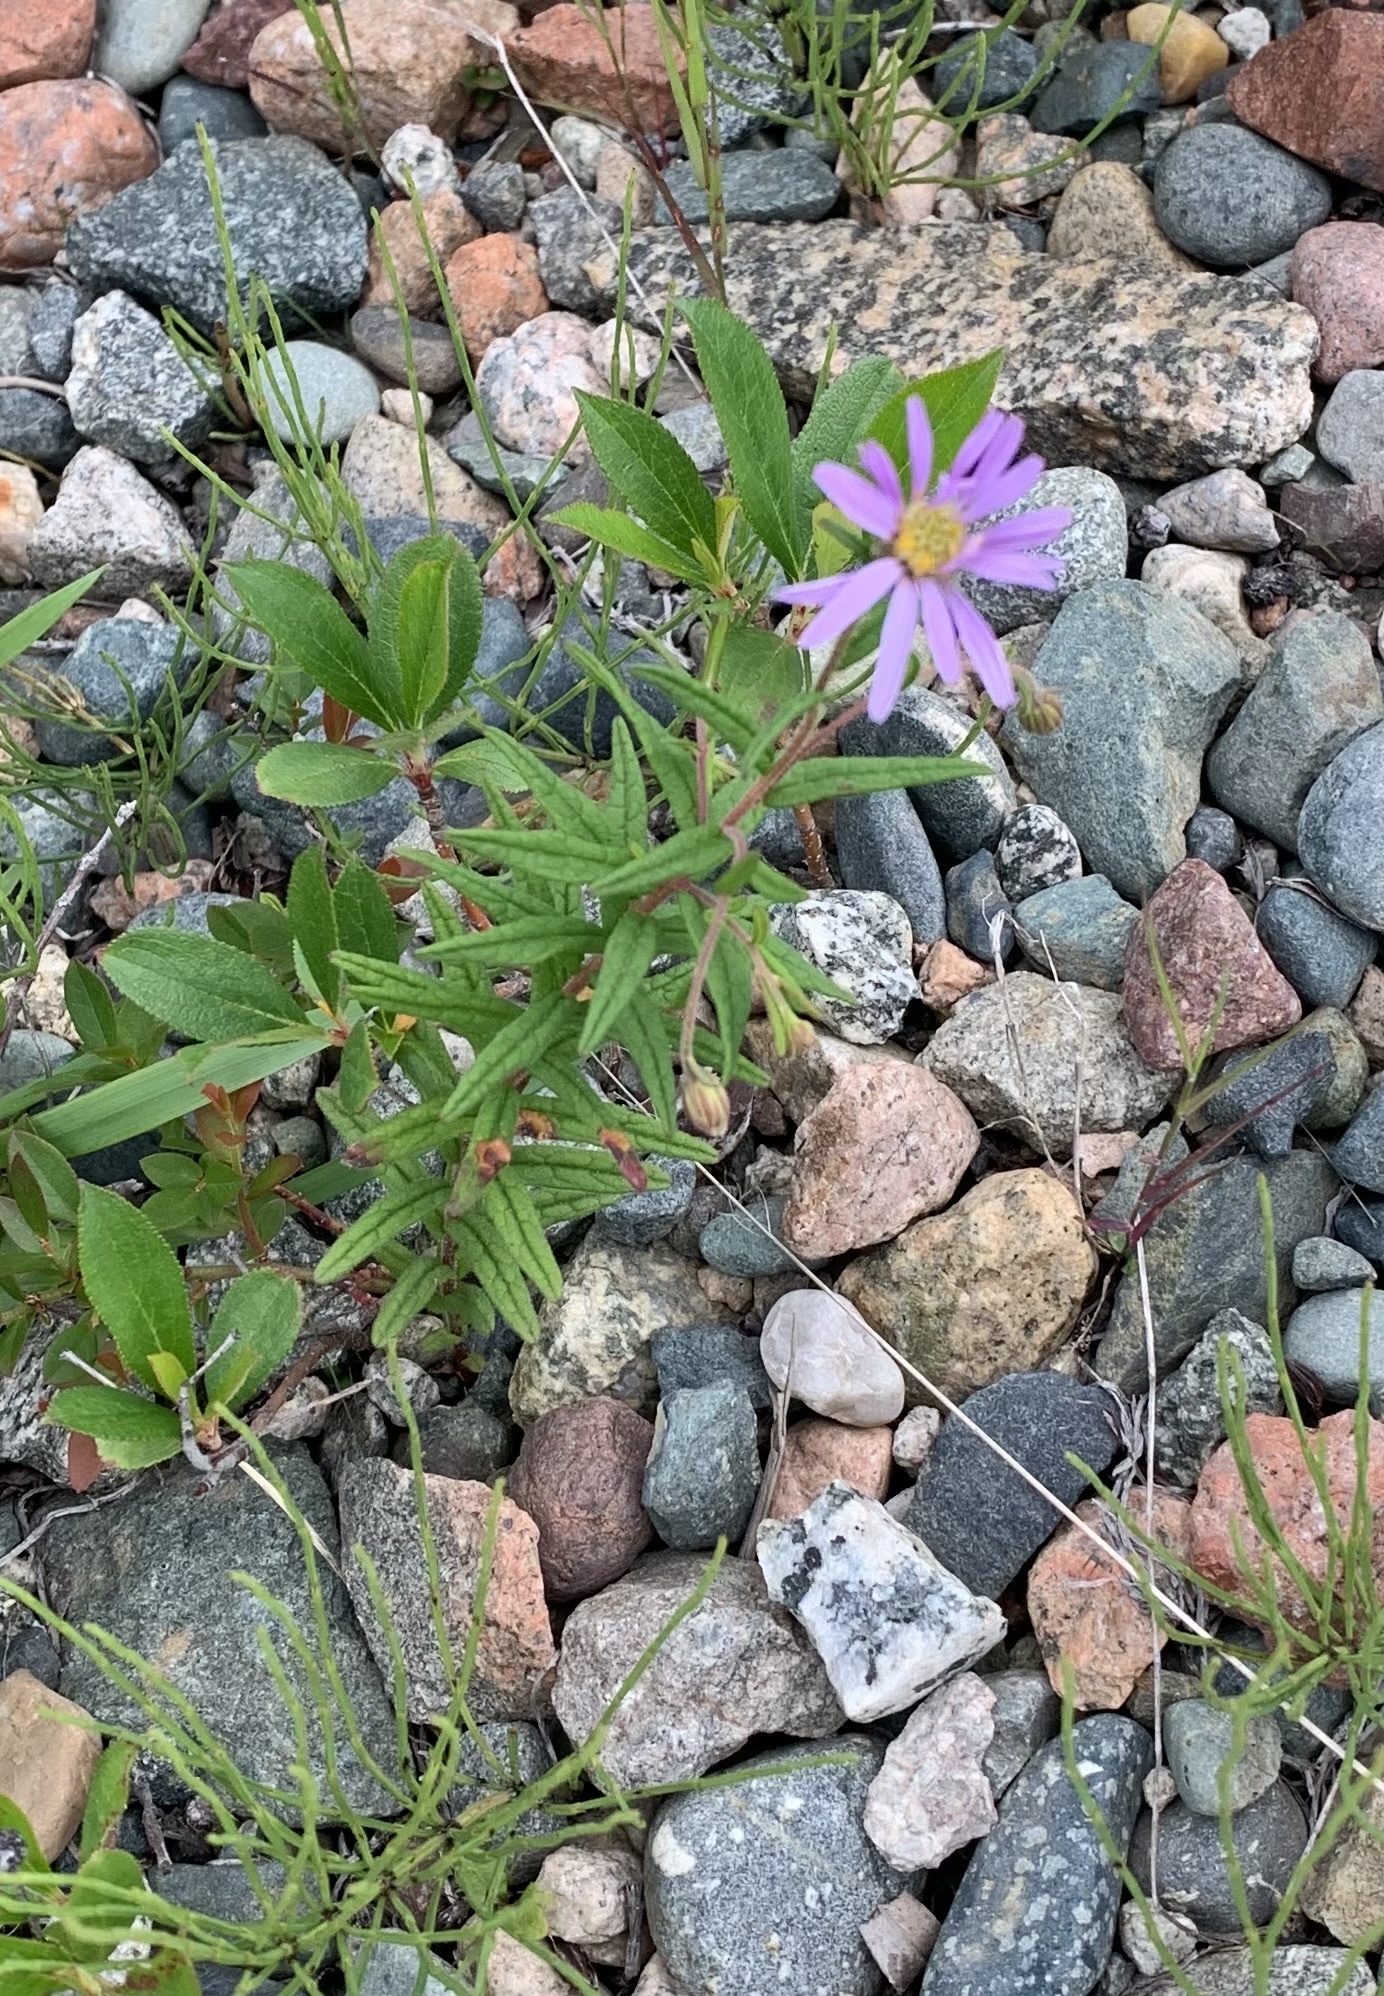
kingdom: Plantae
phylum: Tracheophyta
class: Magnoliopsida
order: Asterales
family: Asteraceae
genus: Oclemena
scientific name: Oclemena nemoralis
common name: Bog aster
